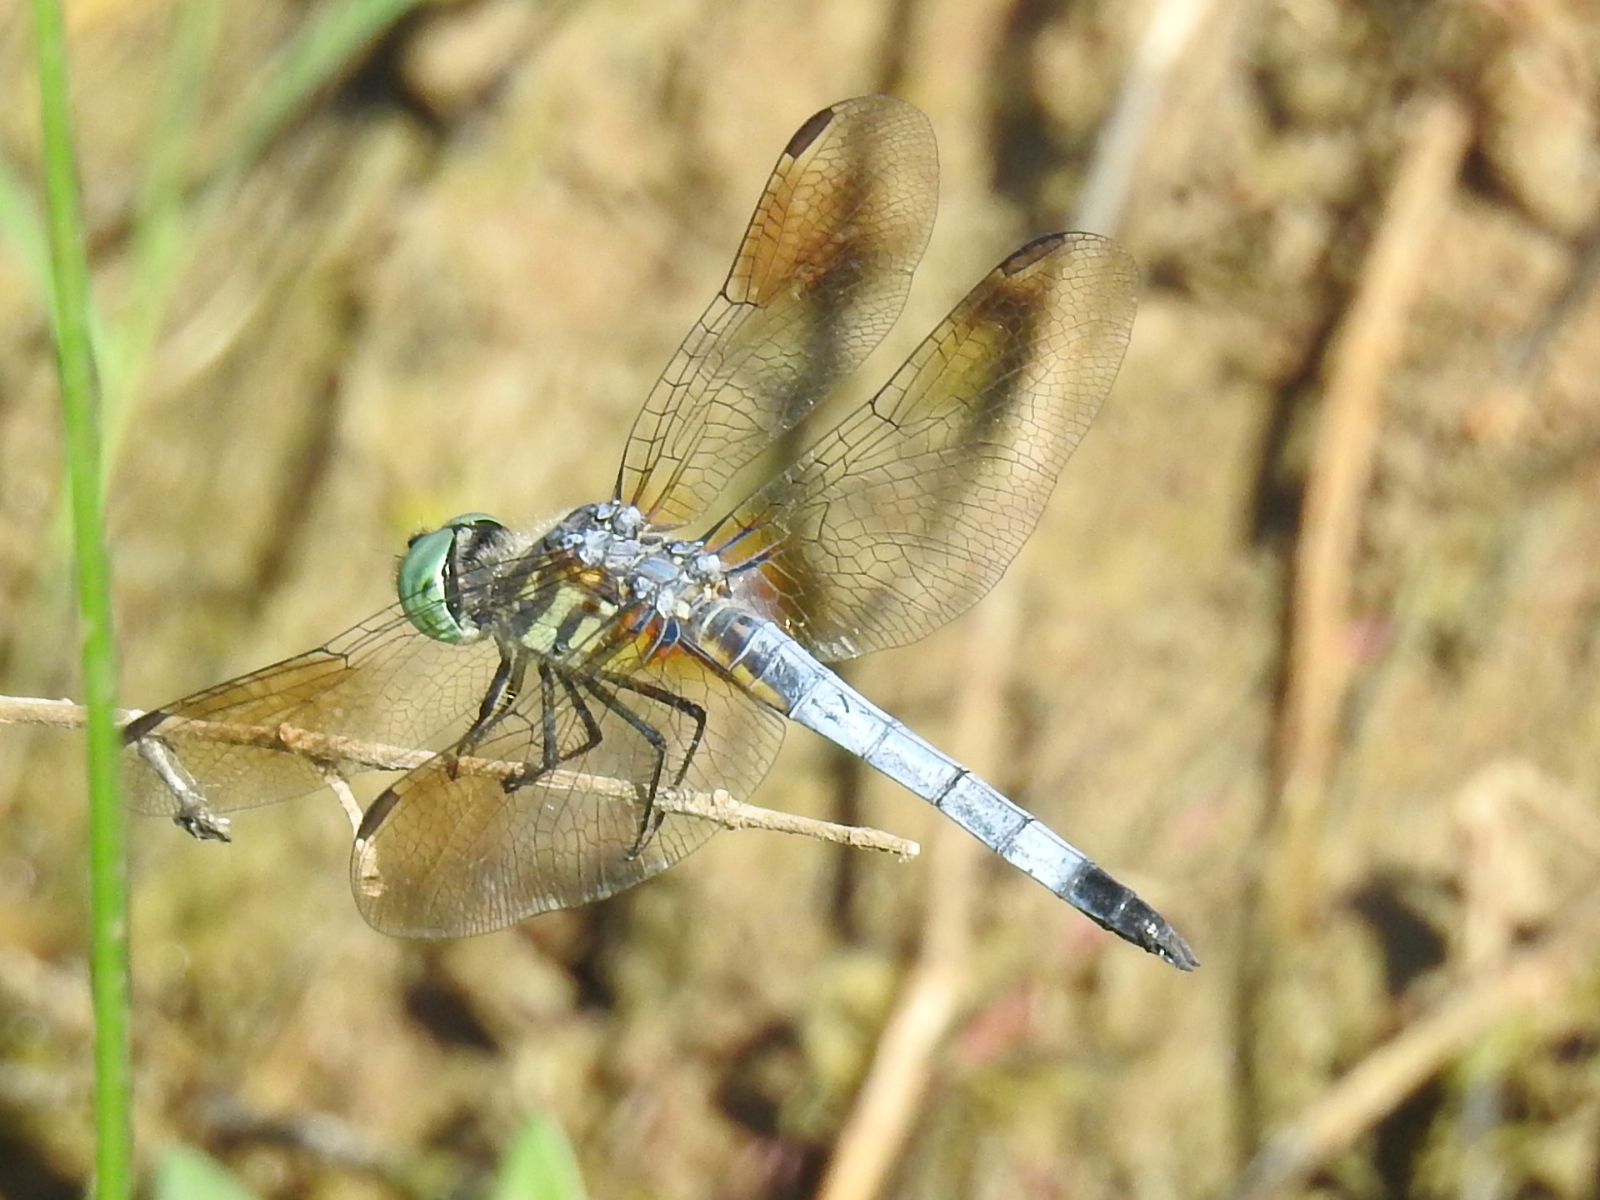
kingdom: Animalia
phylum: Arthropoda
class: Insecta
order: Odonata
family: Libellulidae
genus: Pachydiplax
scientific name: Pachydiplax longipennis
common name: Blue dasher
